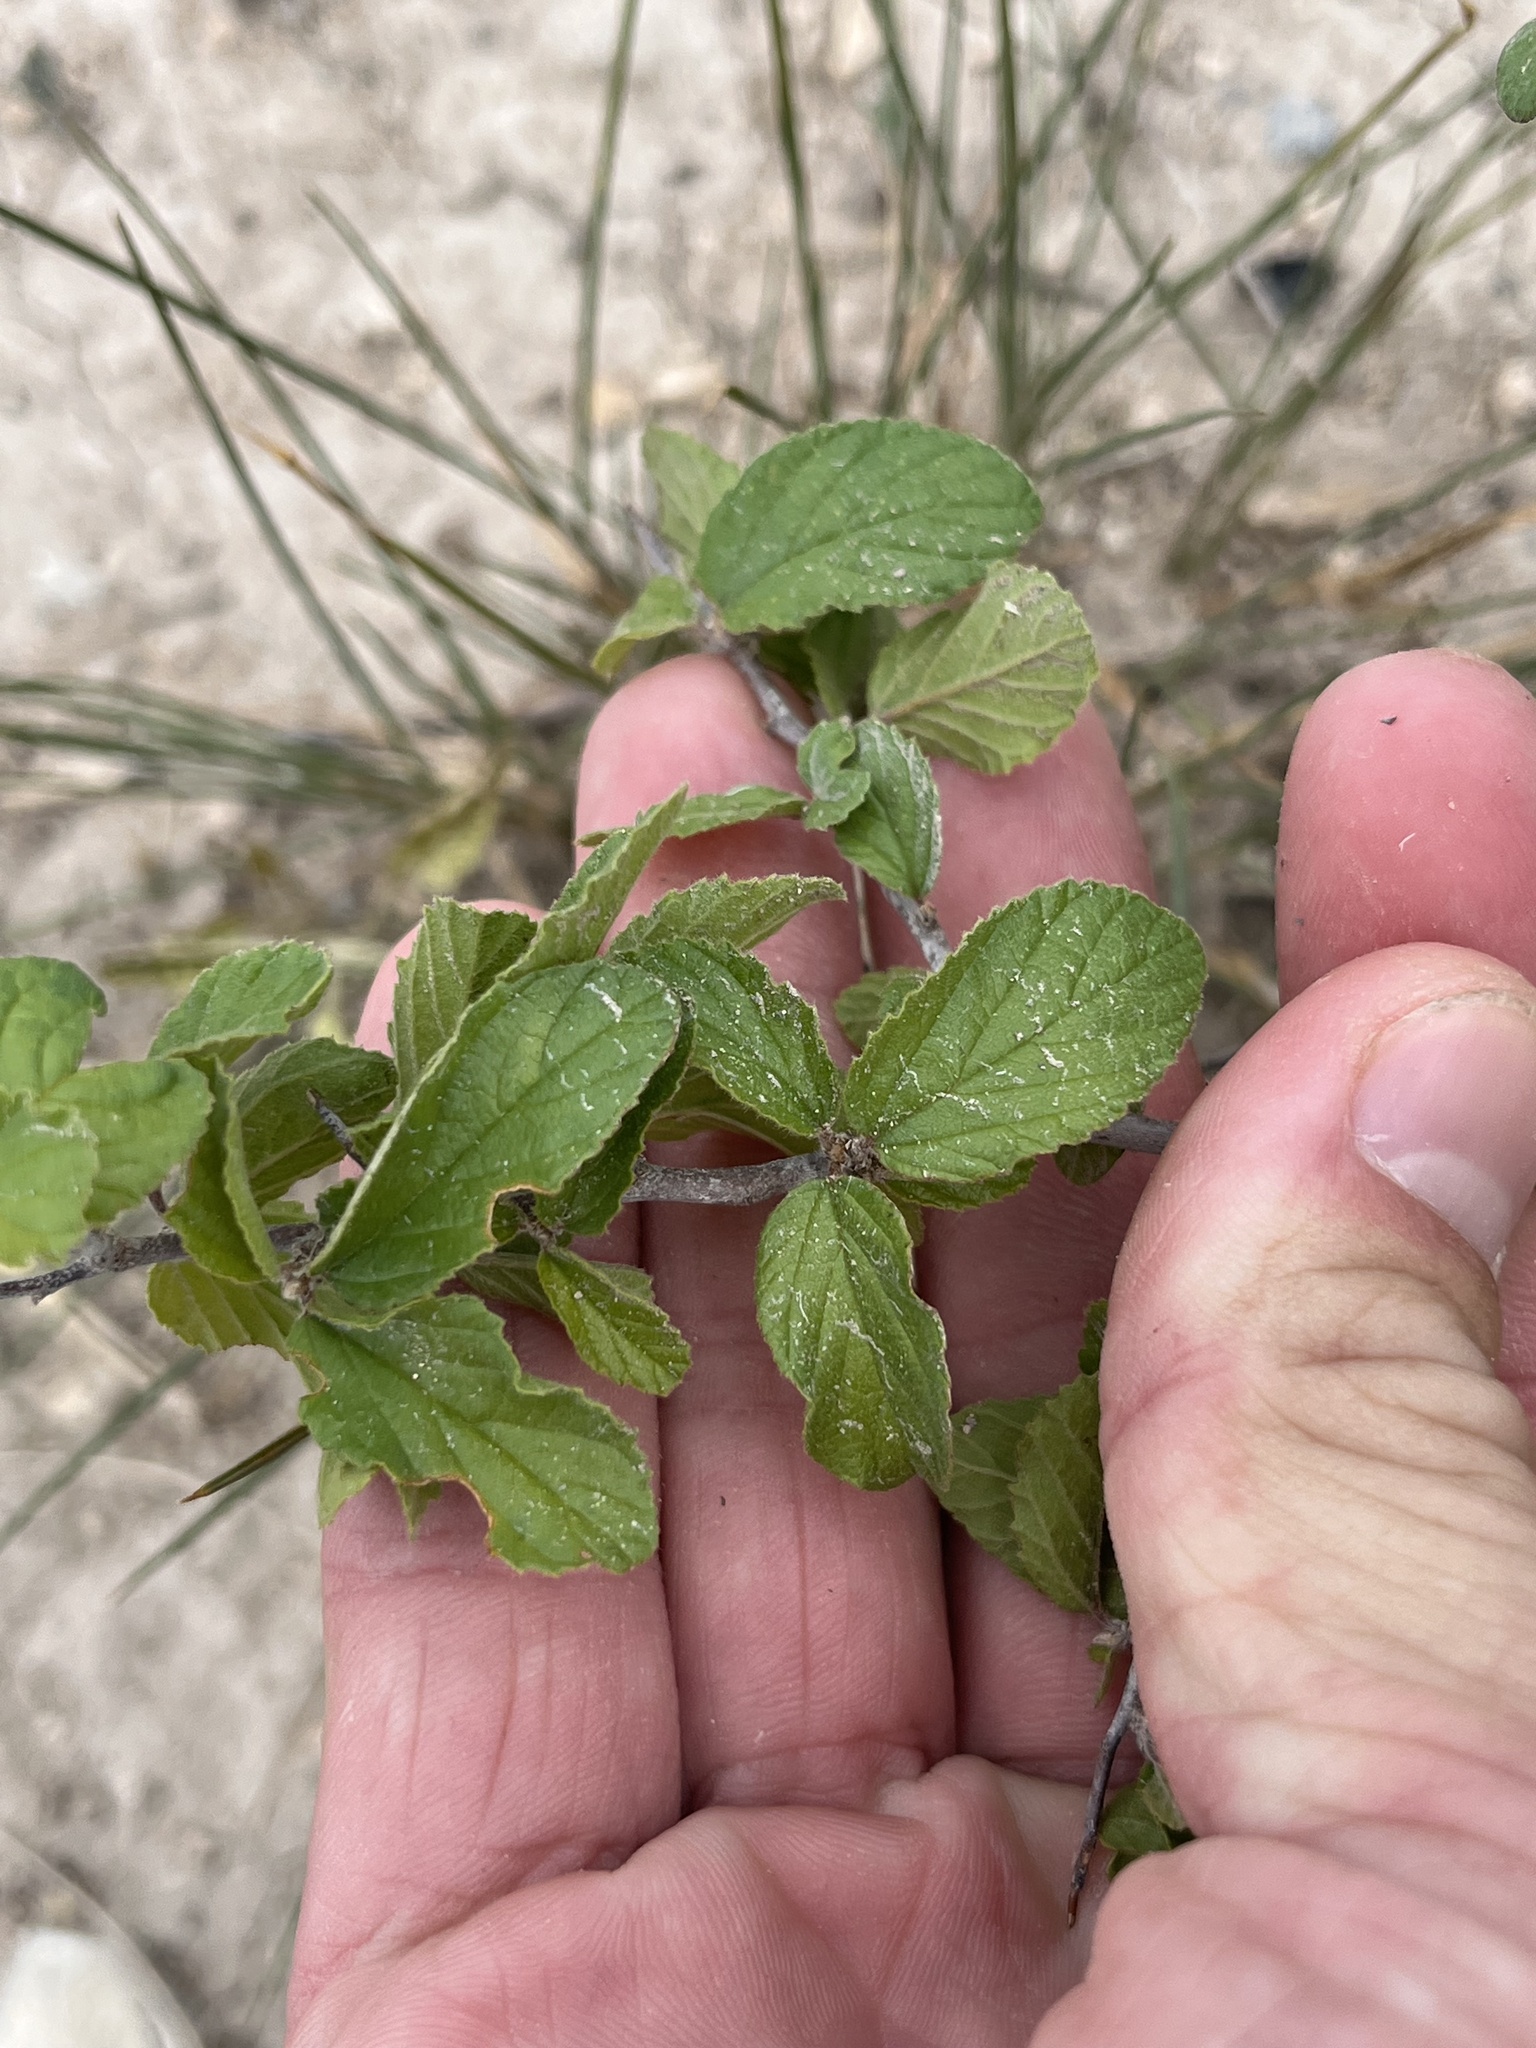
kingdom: Plantae
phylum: Tracheophyta
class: Magnoliopsida
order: Rosales
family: Rhamnaceae
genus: Colubrina
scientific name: Colubrina texensis
